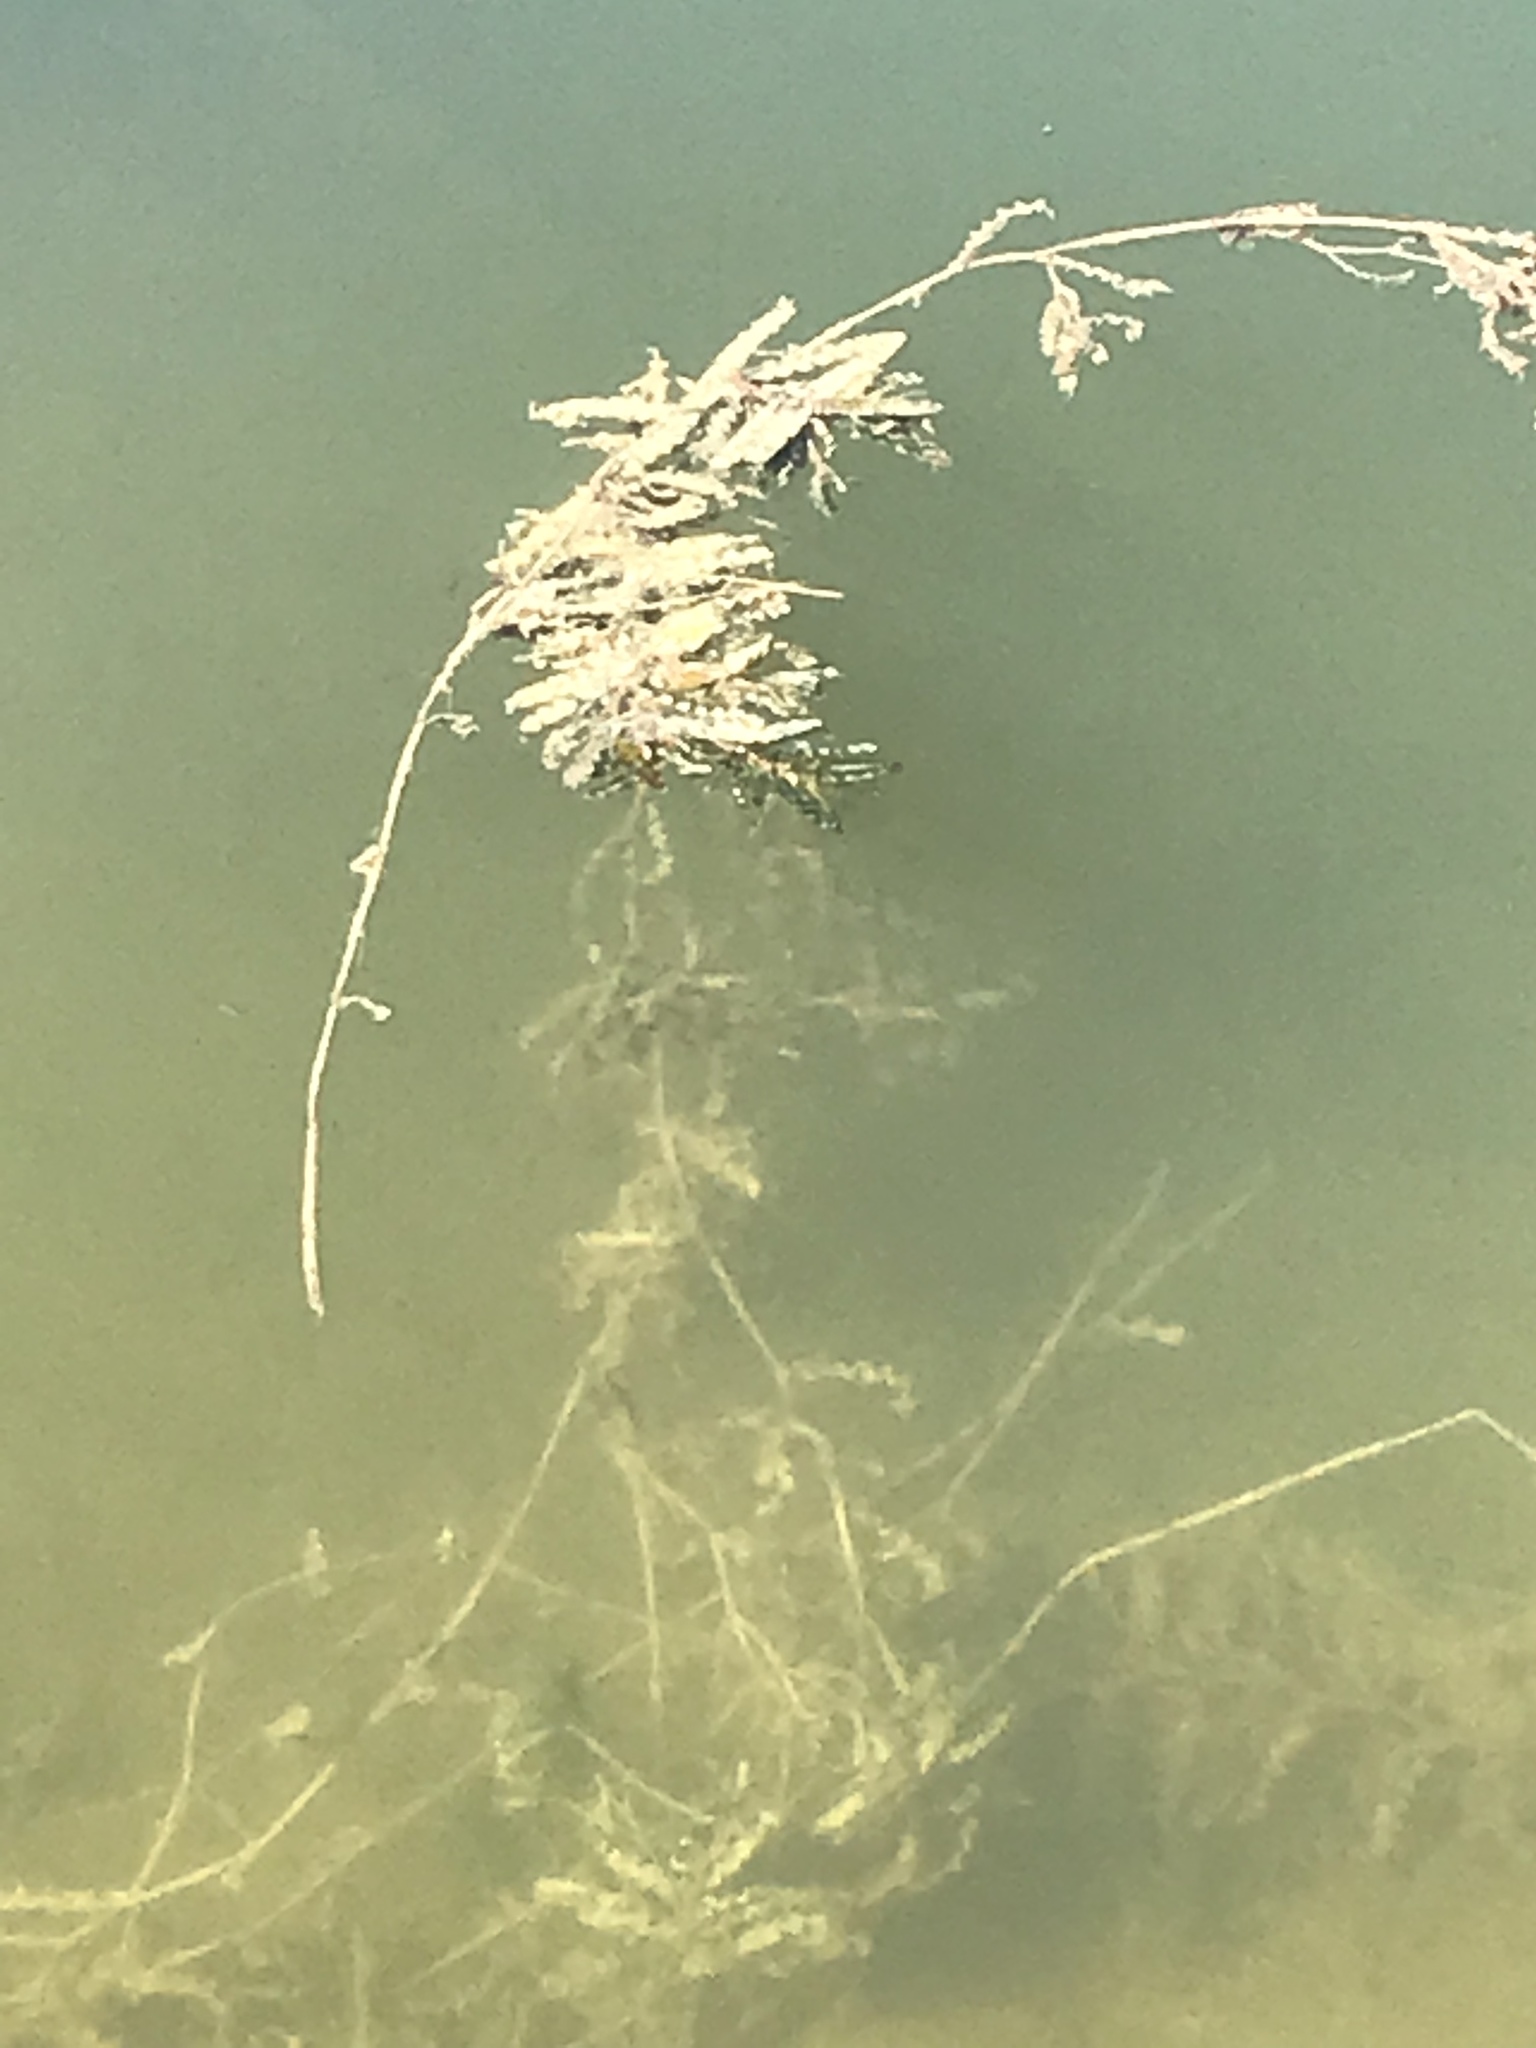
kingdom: Plantae
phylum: Tracheophyta
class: Liliopsida
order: Alismatales
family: Potamogetonaceae
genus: Potamogeton
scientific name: Potamogeton crispus
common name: Curled pondweed
